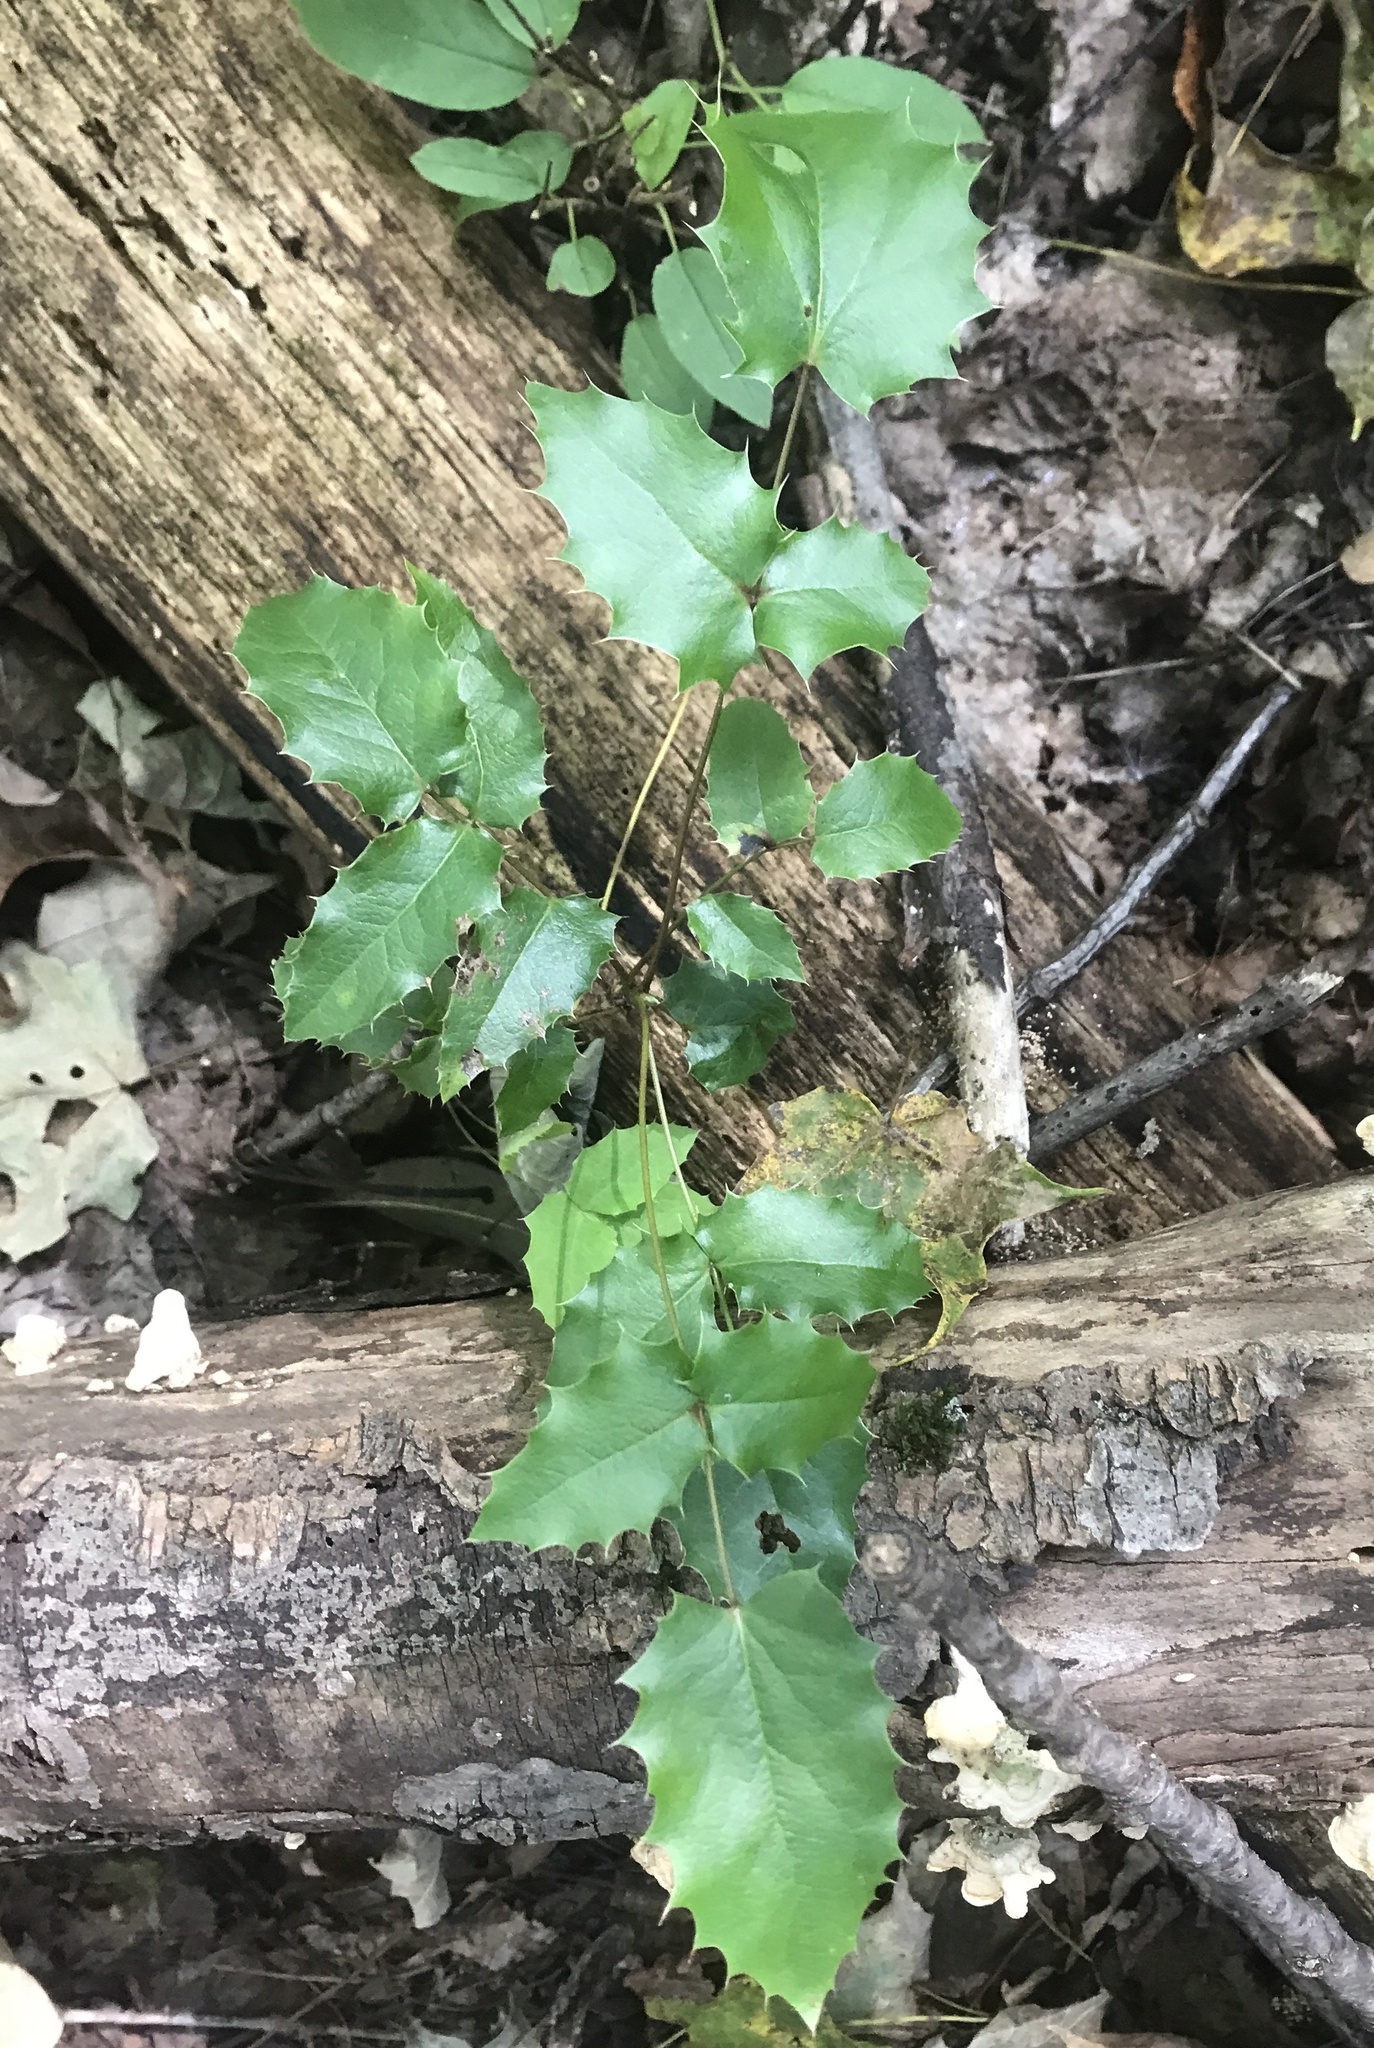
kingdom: Plantae
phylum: Tracheophyta
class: Magnoliopsida
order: Ranunculales
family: Berberidaceae
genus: Mahonia
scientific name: Mahonia aquifolium
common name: Oregon-grape
